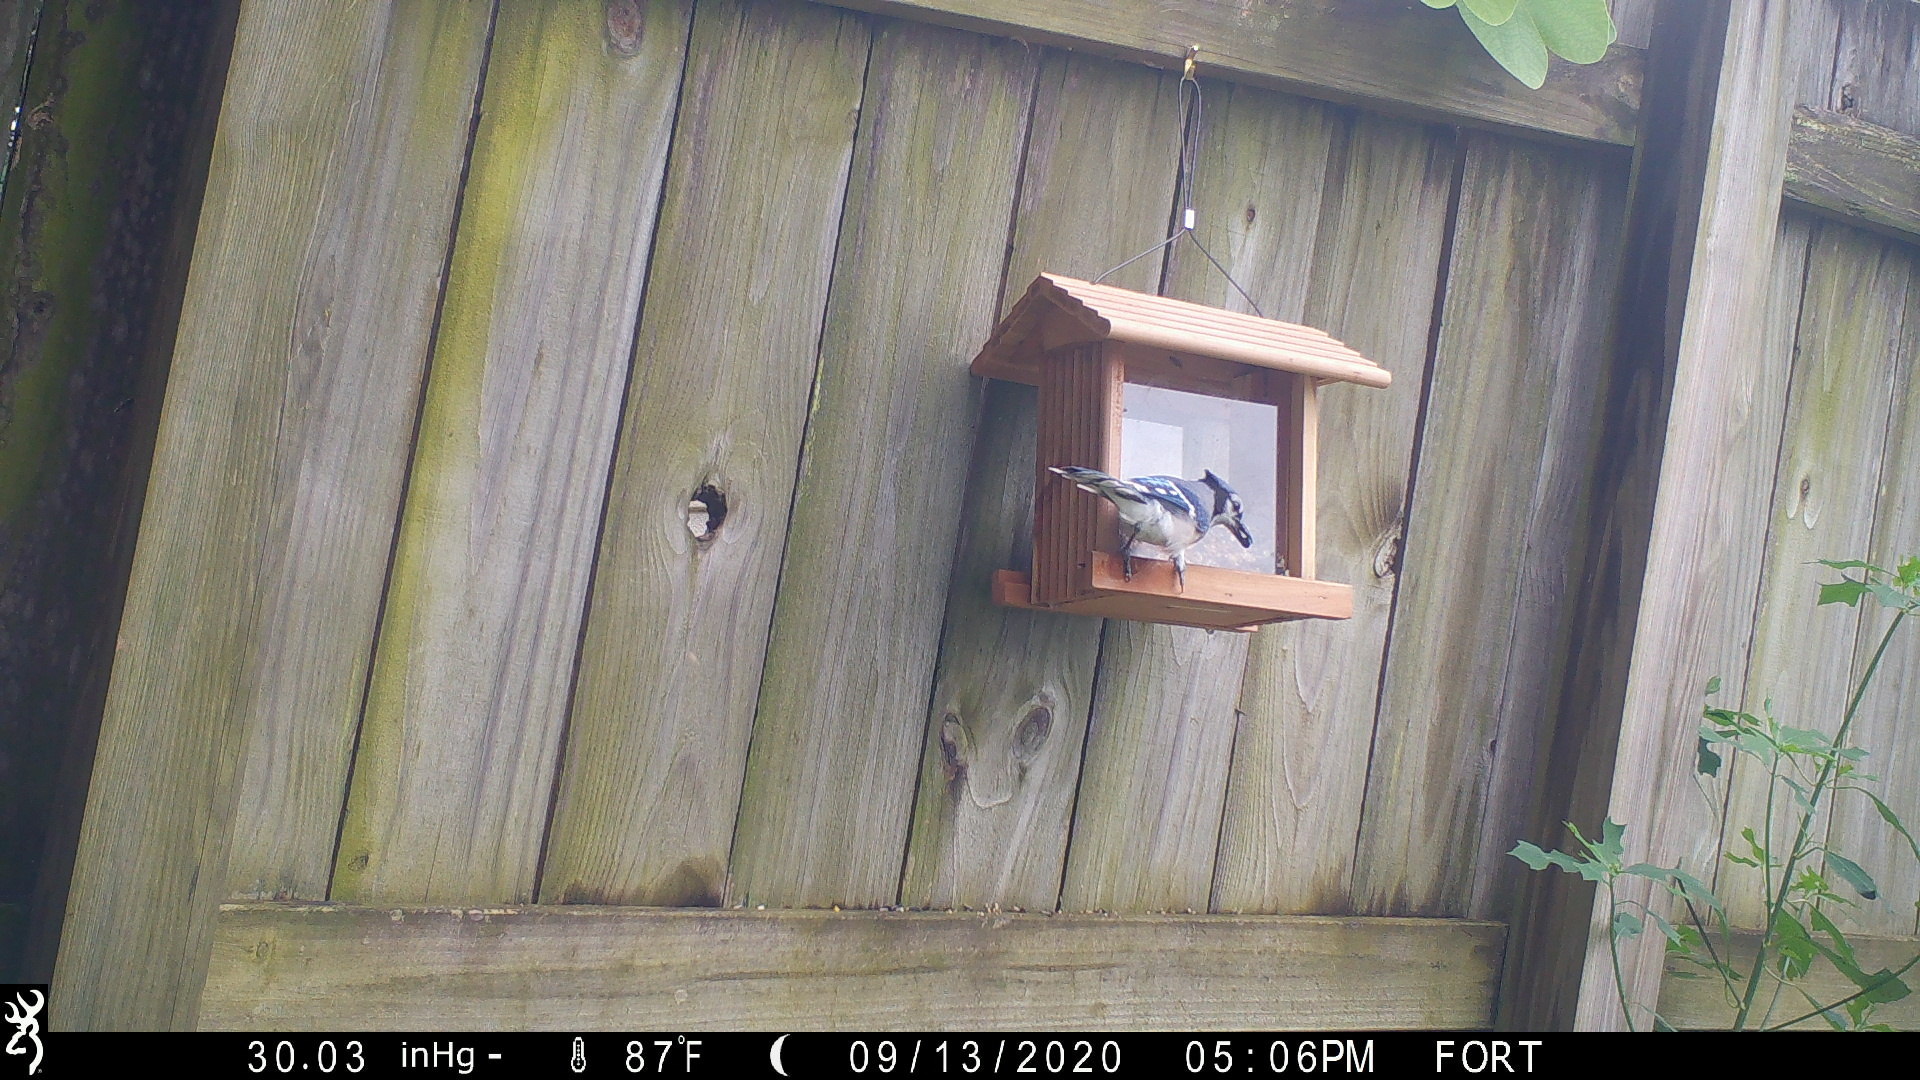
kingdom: Animalia
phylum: Chordata
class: Aves
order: Passeriformes
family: Corvidae
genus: Cyanocitta
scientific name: Cyanocitta cristata
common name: Blue jay
